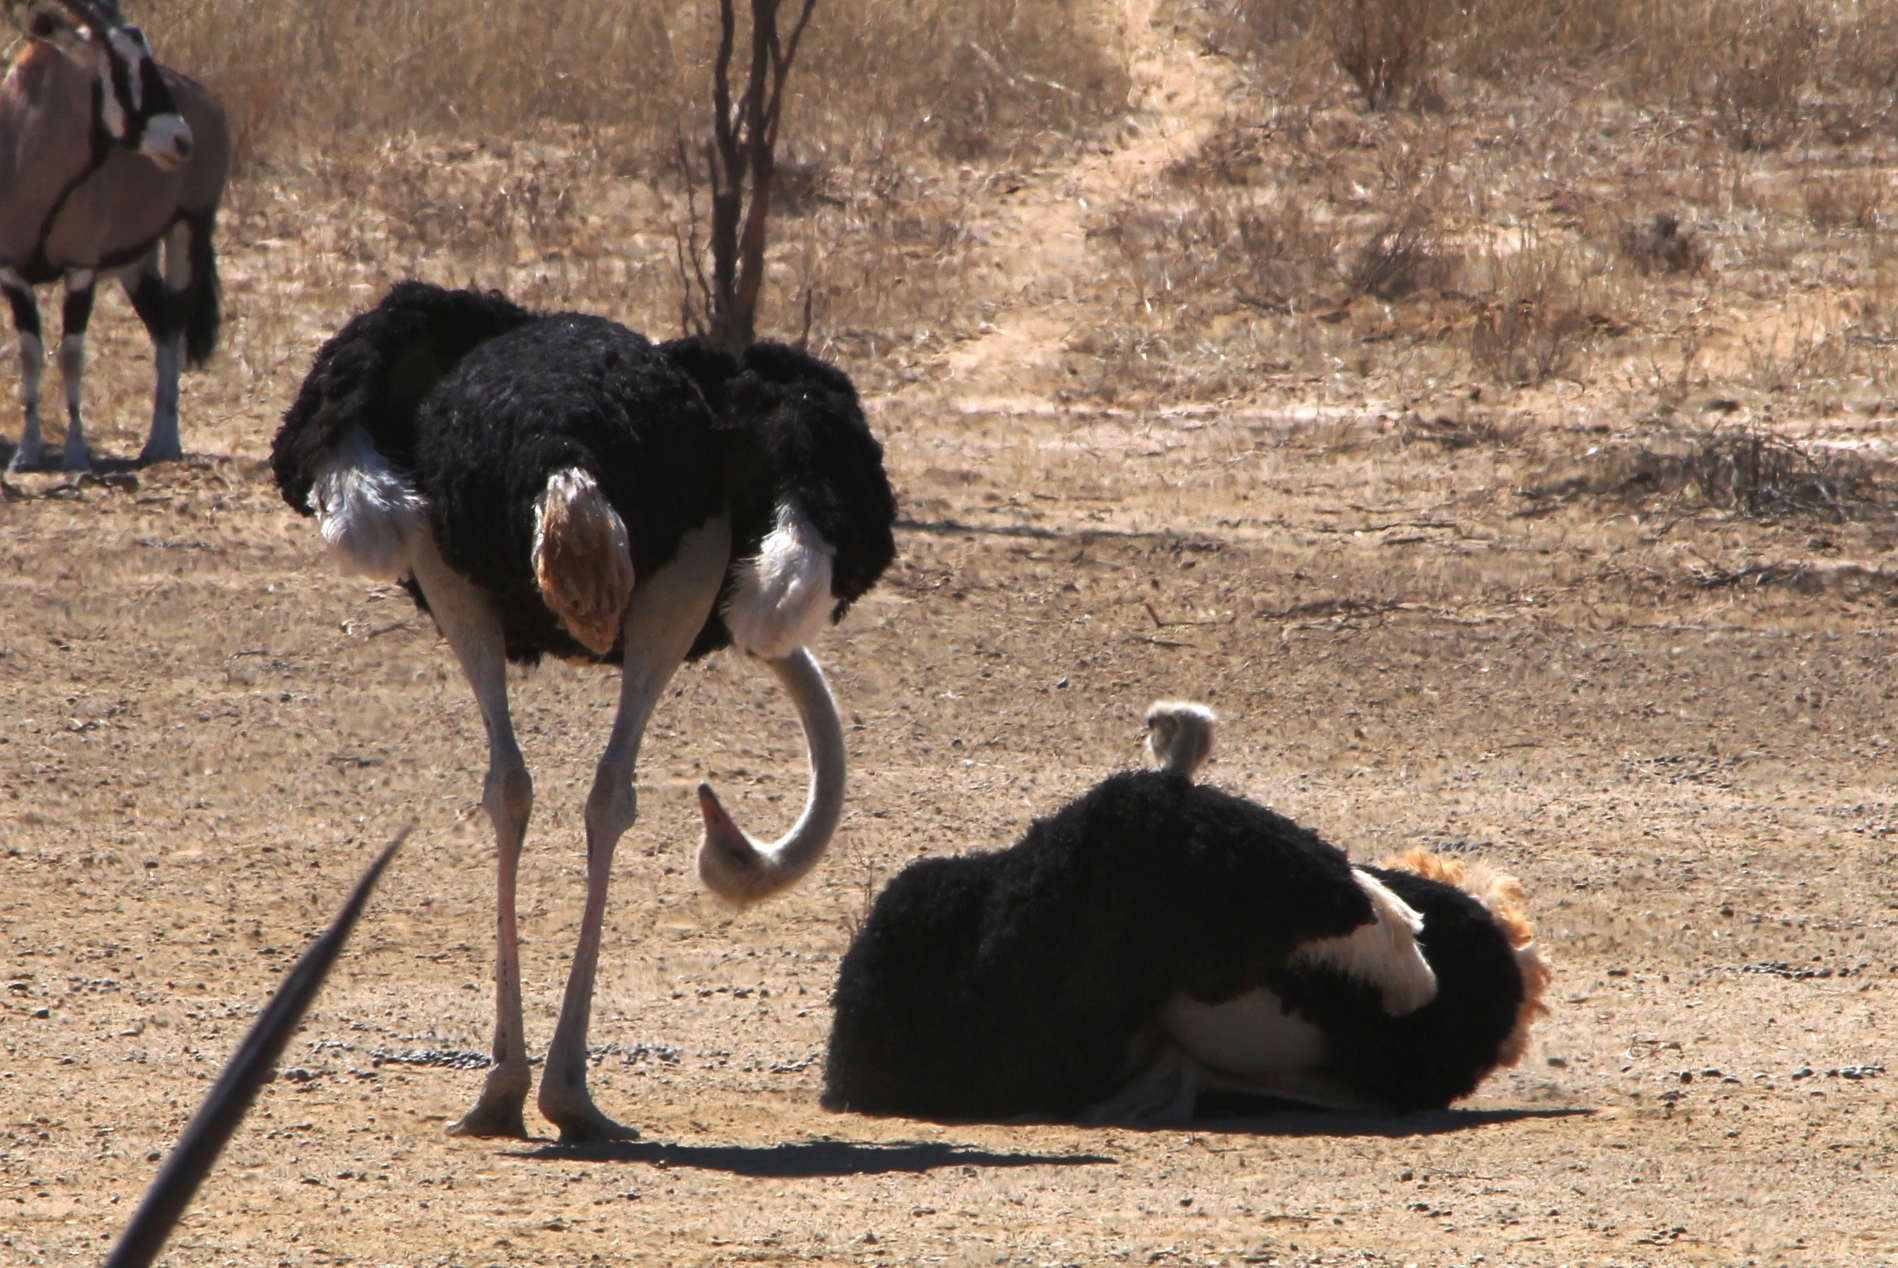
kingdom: Animalia
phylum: Chordata
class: Aves
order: Struthioniformes
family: Struthionidae
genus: Struthio
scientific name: Struthio camelus
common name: Common ostrich
